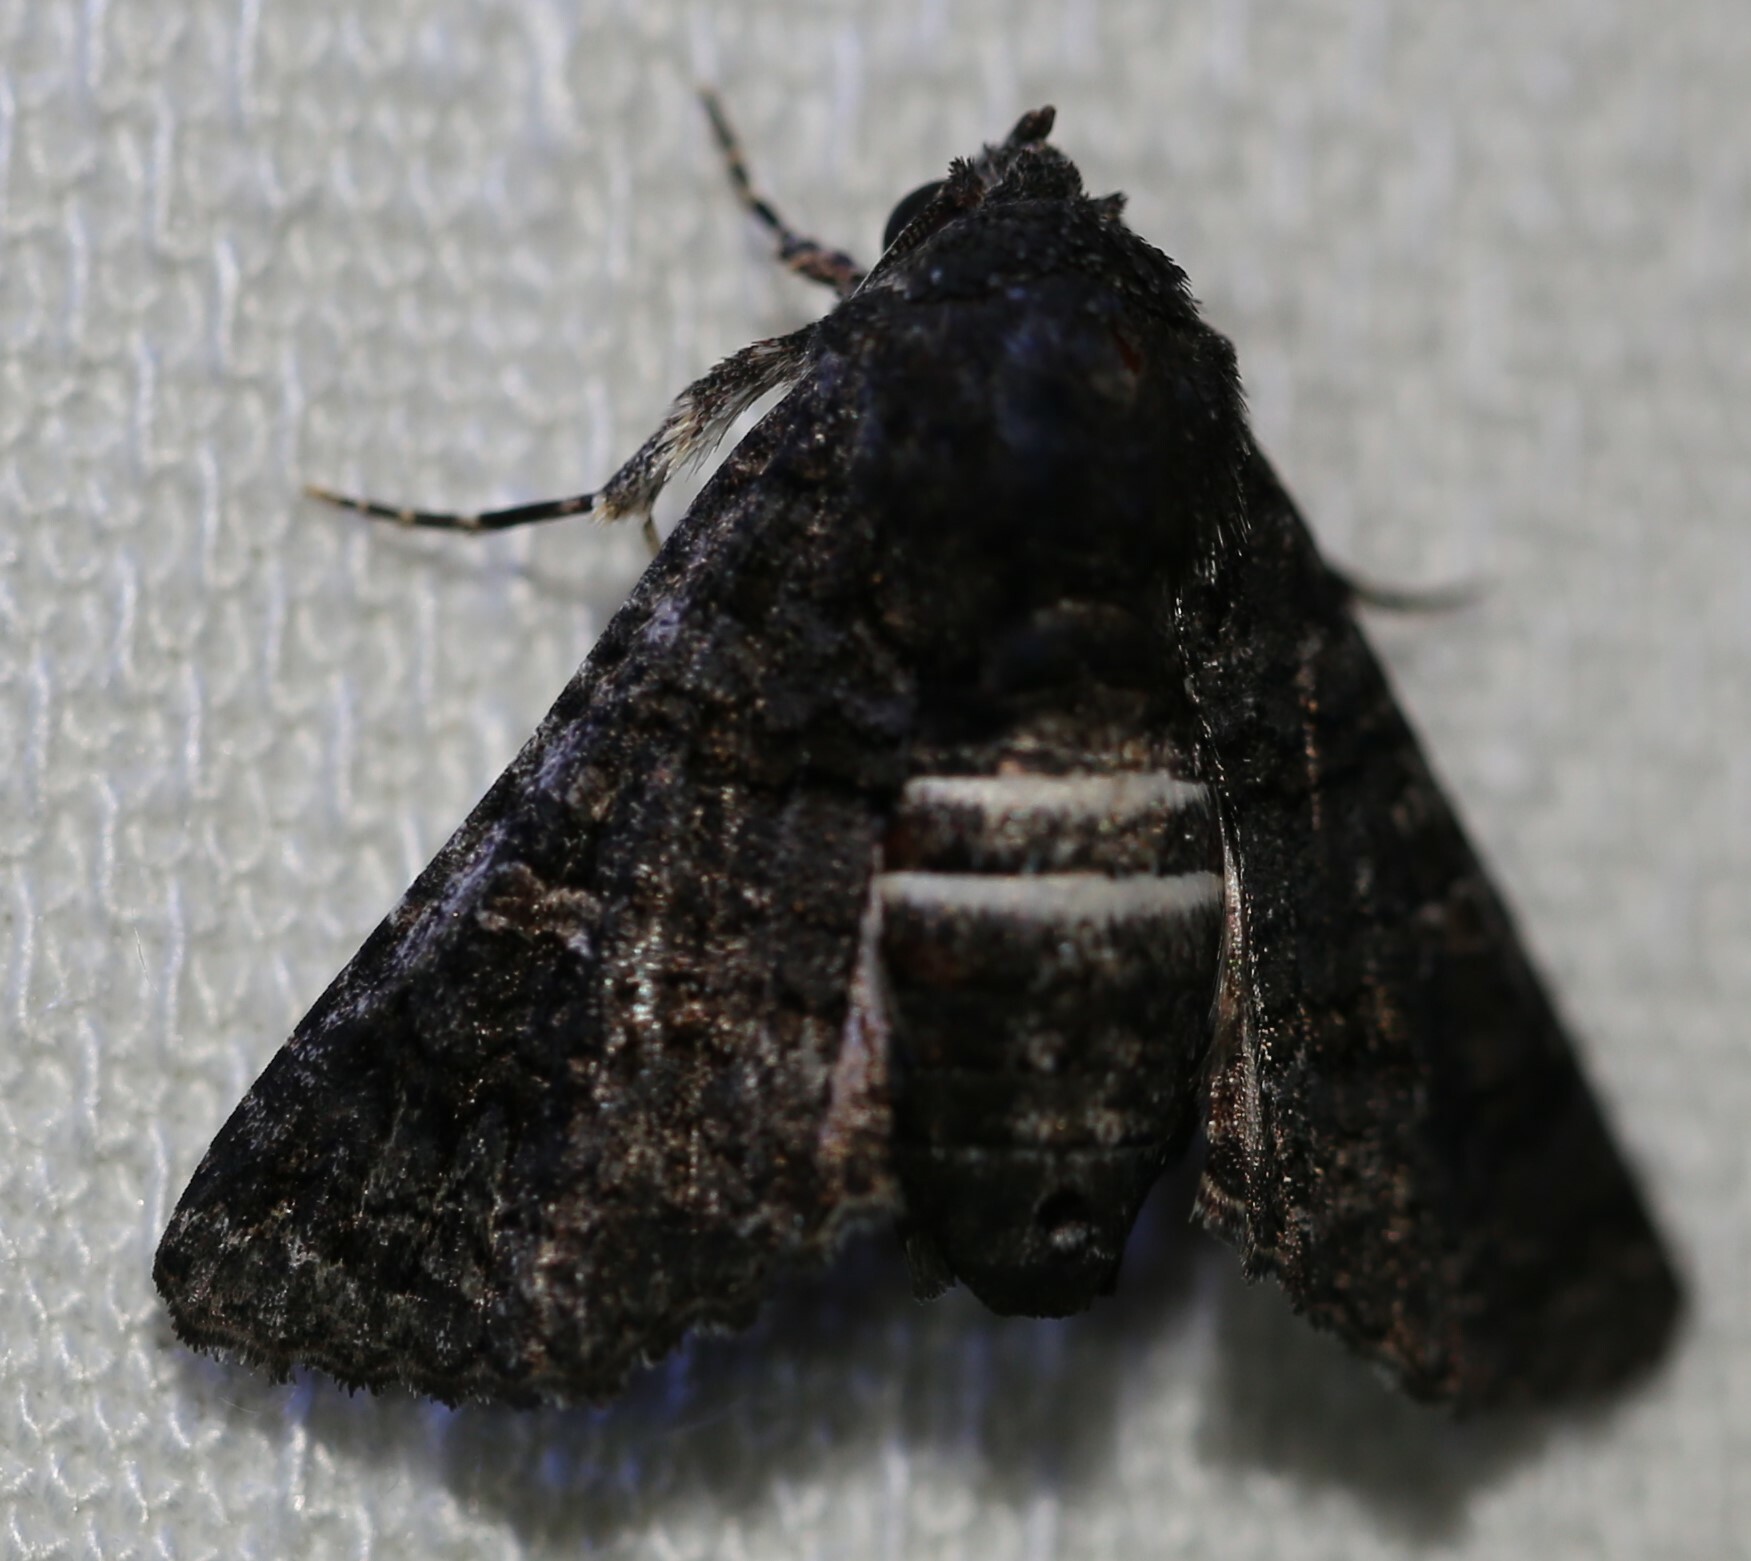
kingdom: Animalia
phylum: Arthropoda
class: Insecta
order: Lepidoptera
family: Euteliidae
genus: Pataeta
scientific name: Pataeta carbo
